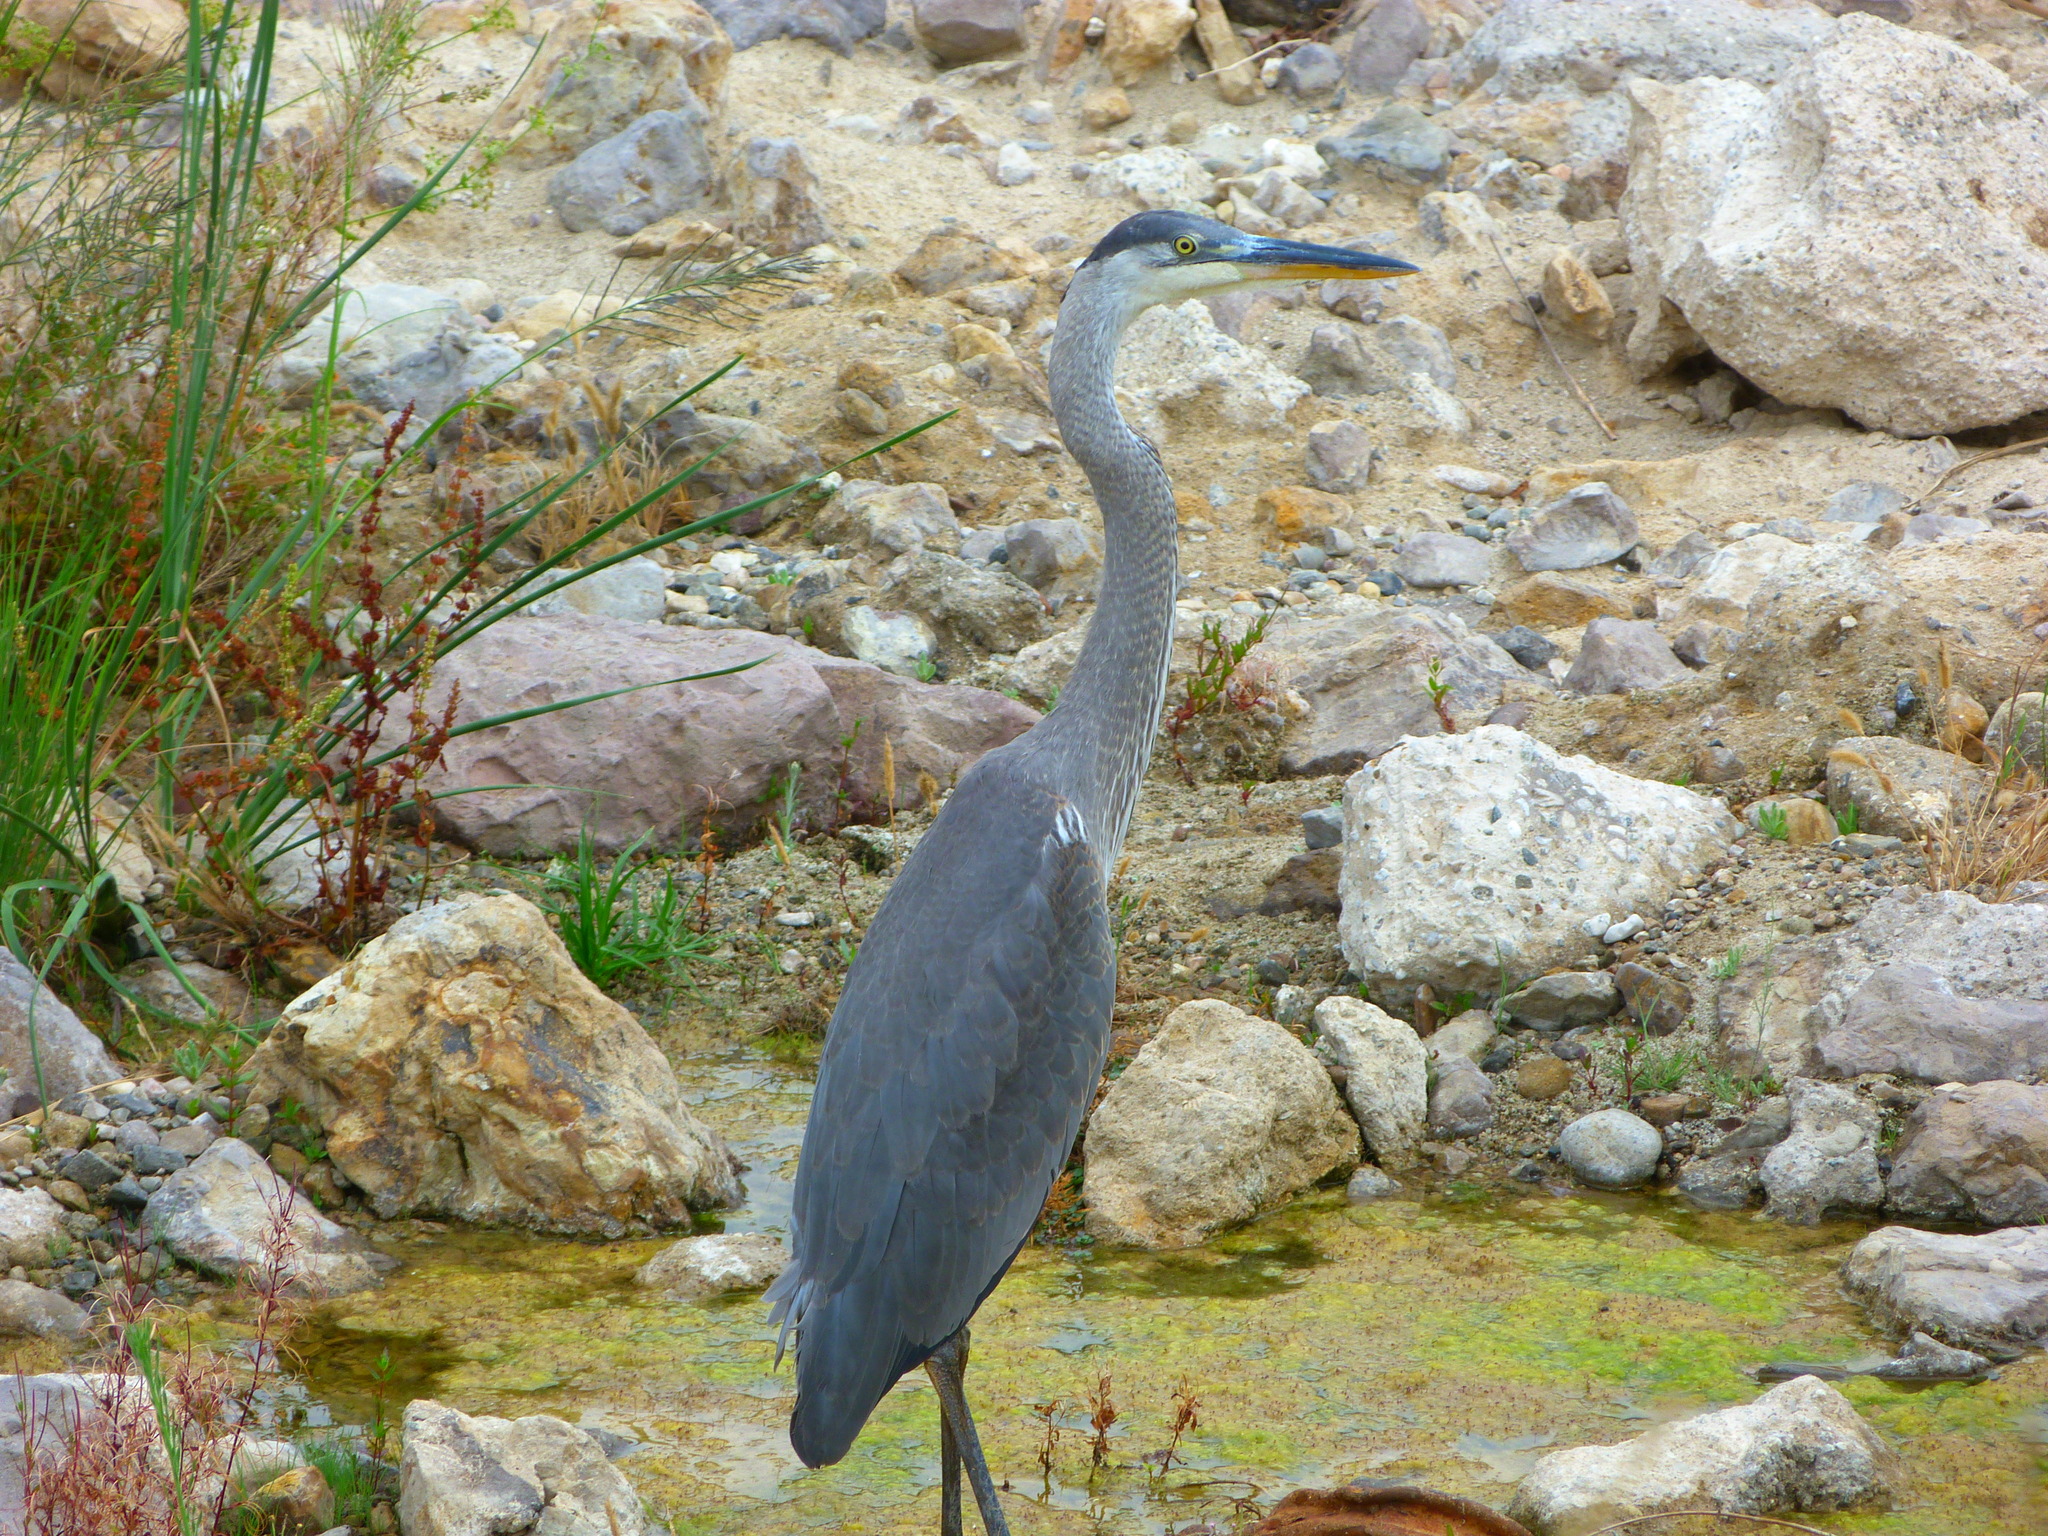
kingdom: Animalia
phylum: Chordata
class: Aves
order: Pelecaniformes
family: Ardeidae
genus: Ardea
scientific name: Ardea herodias
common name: Great blue heron
